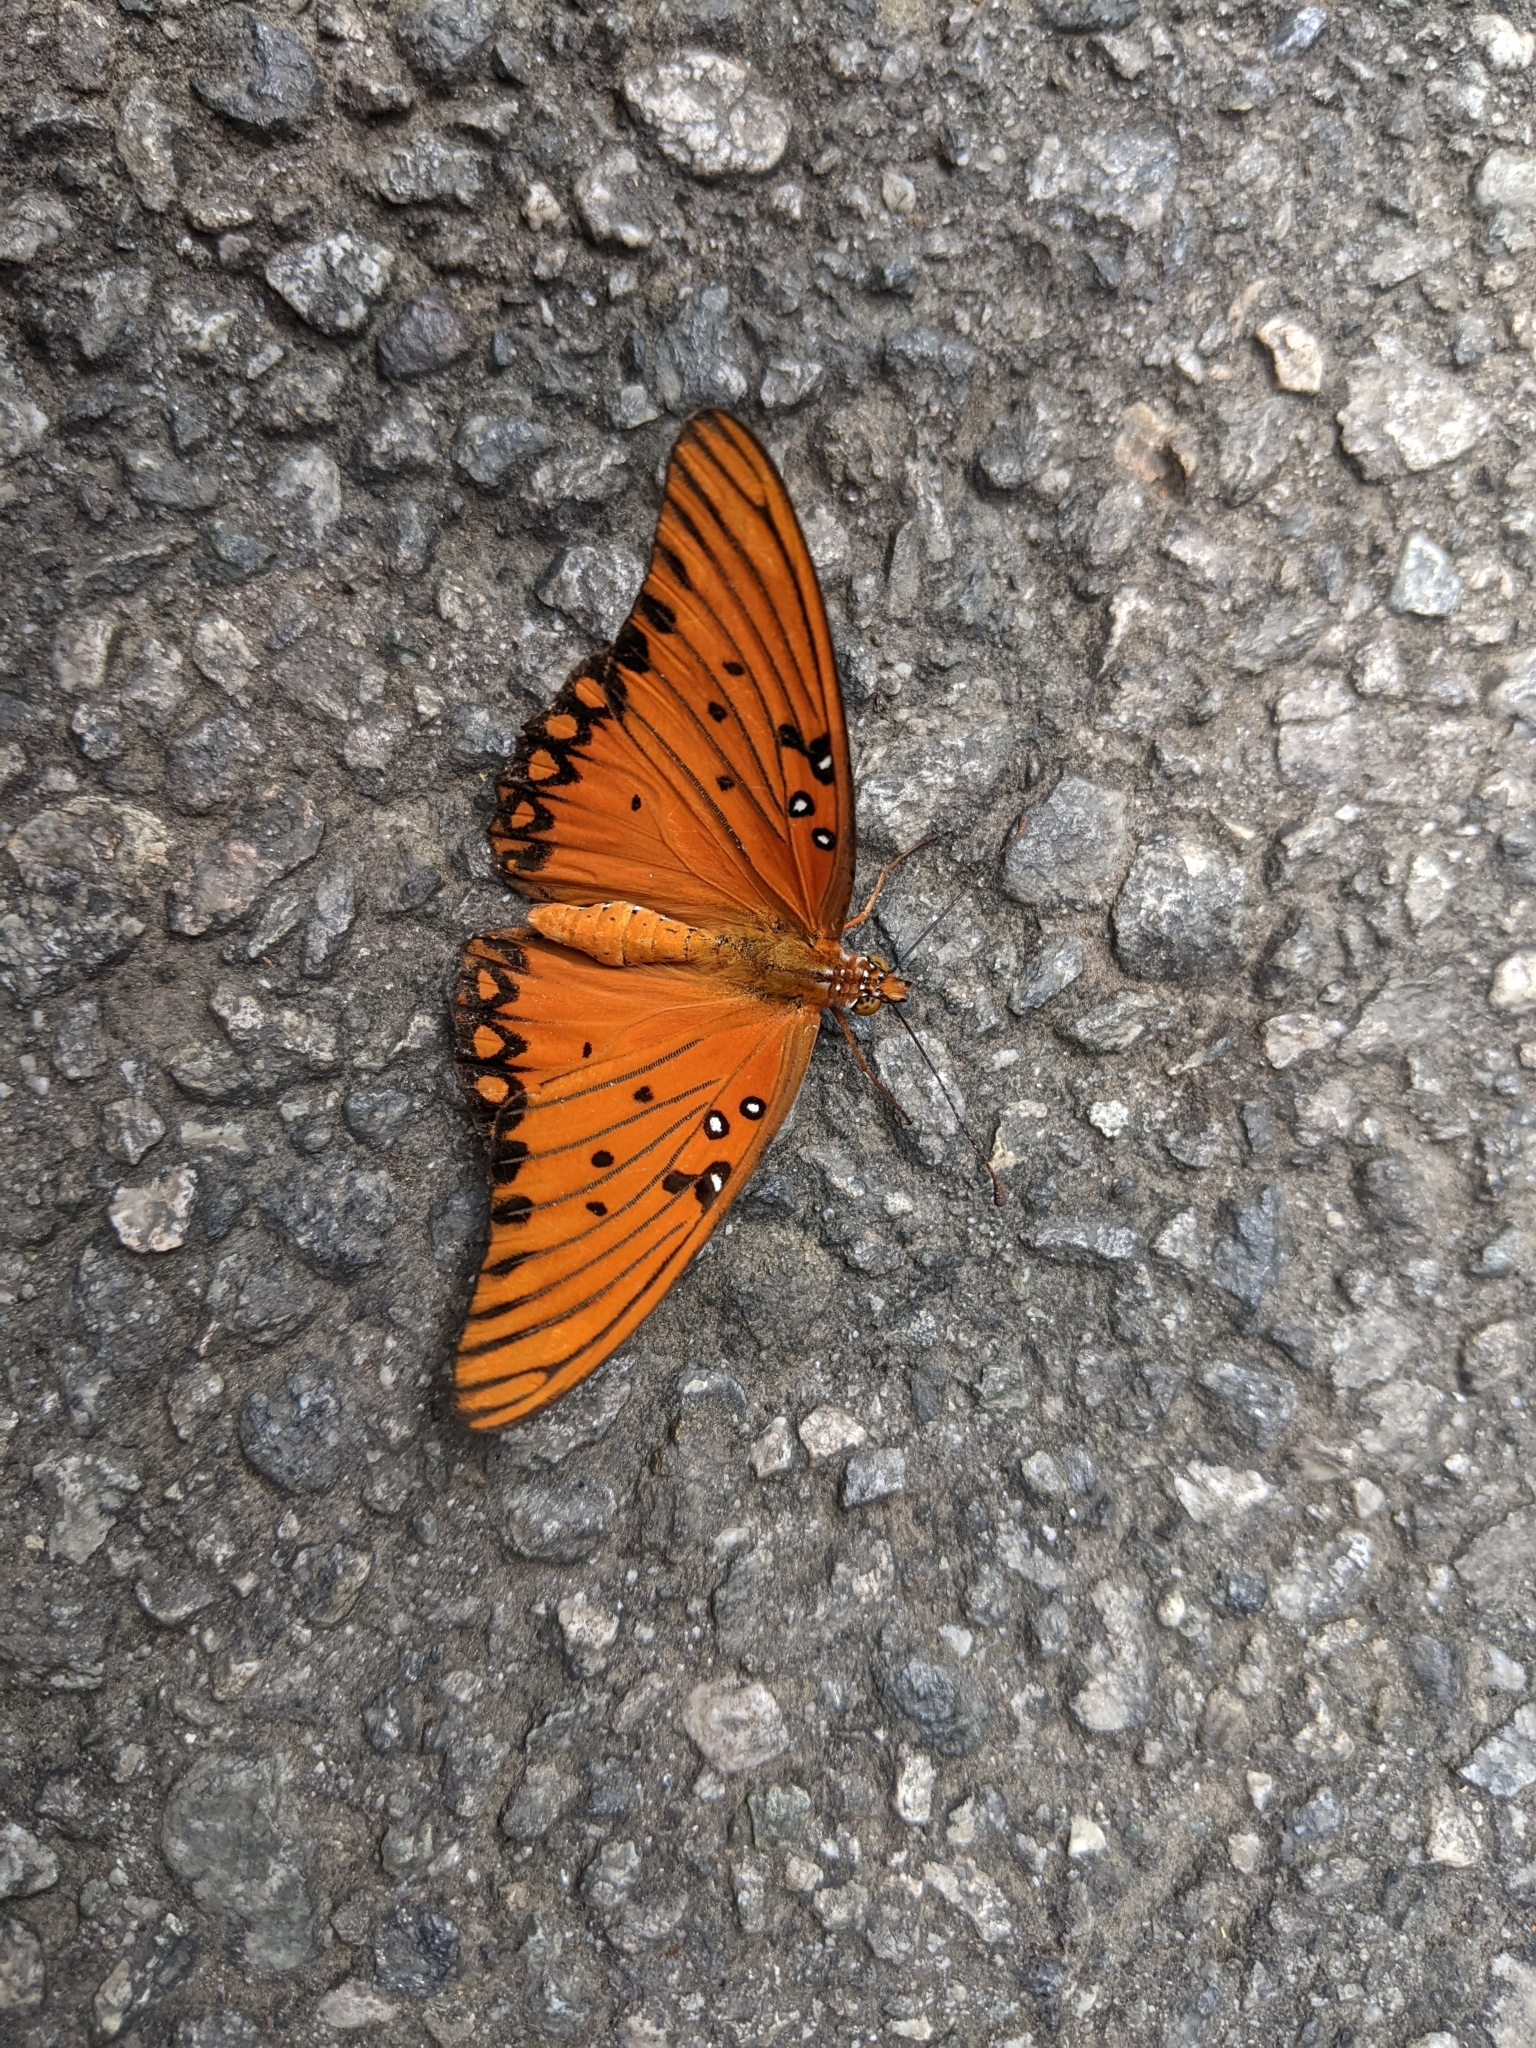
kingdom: Animalia
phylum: Arthropoda
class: Insecta
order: Lepidoptera
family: Nymphalidae
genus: Dione
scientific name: Dione vanillae
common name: Gulf fritillary
